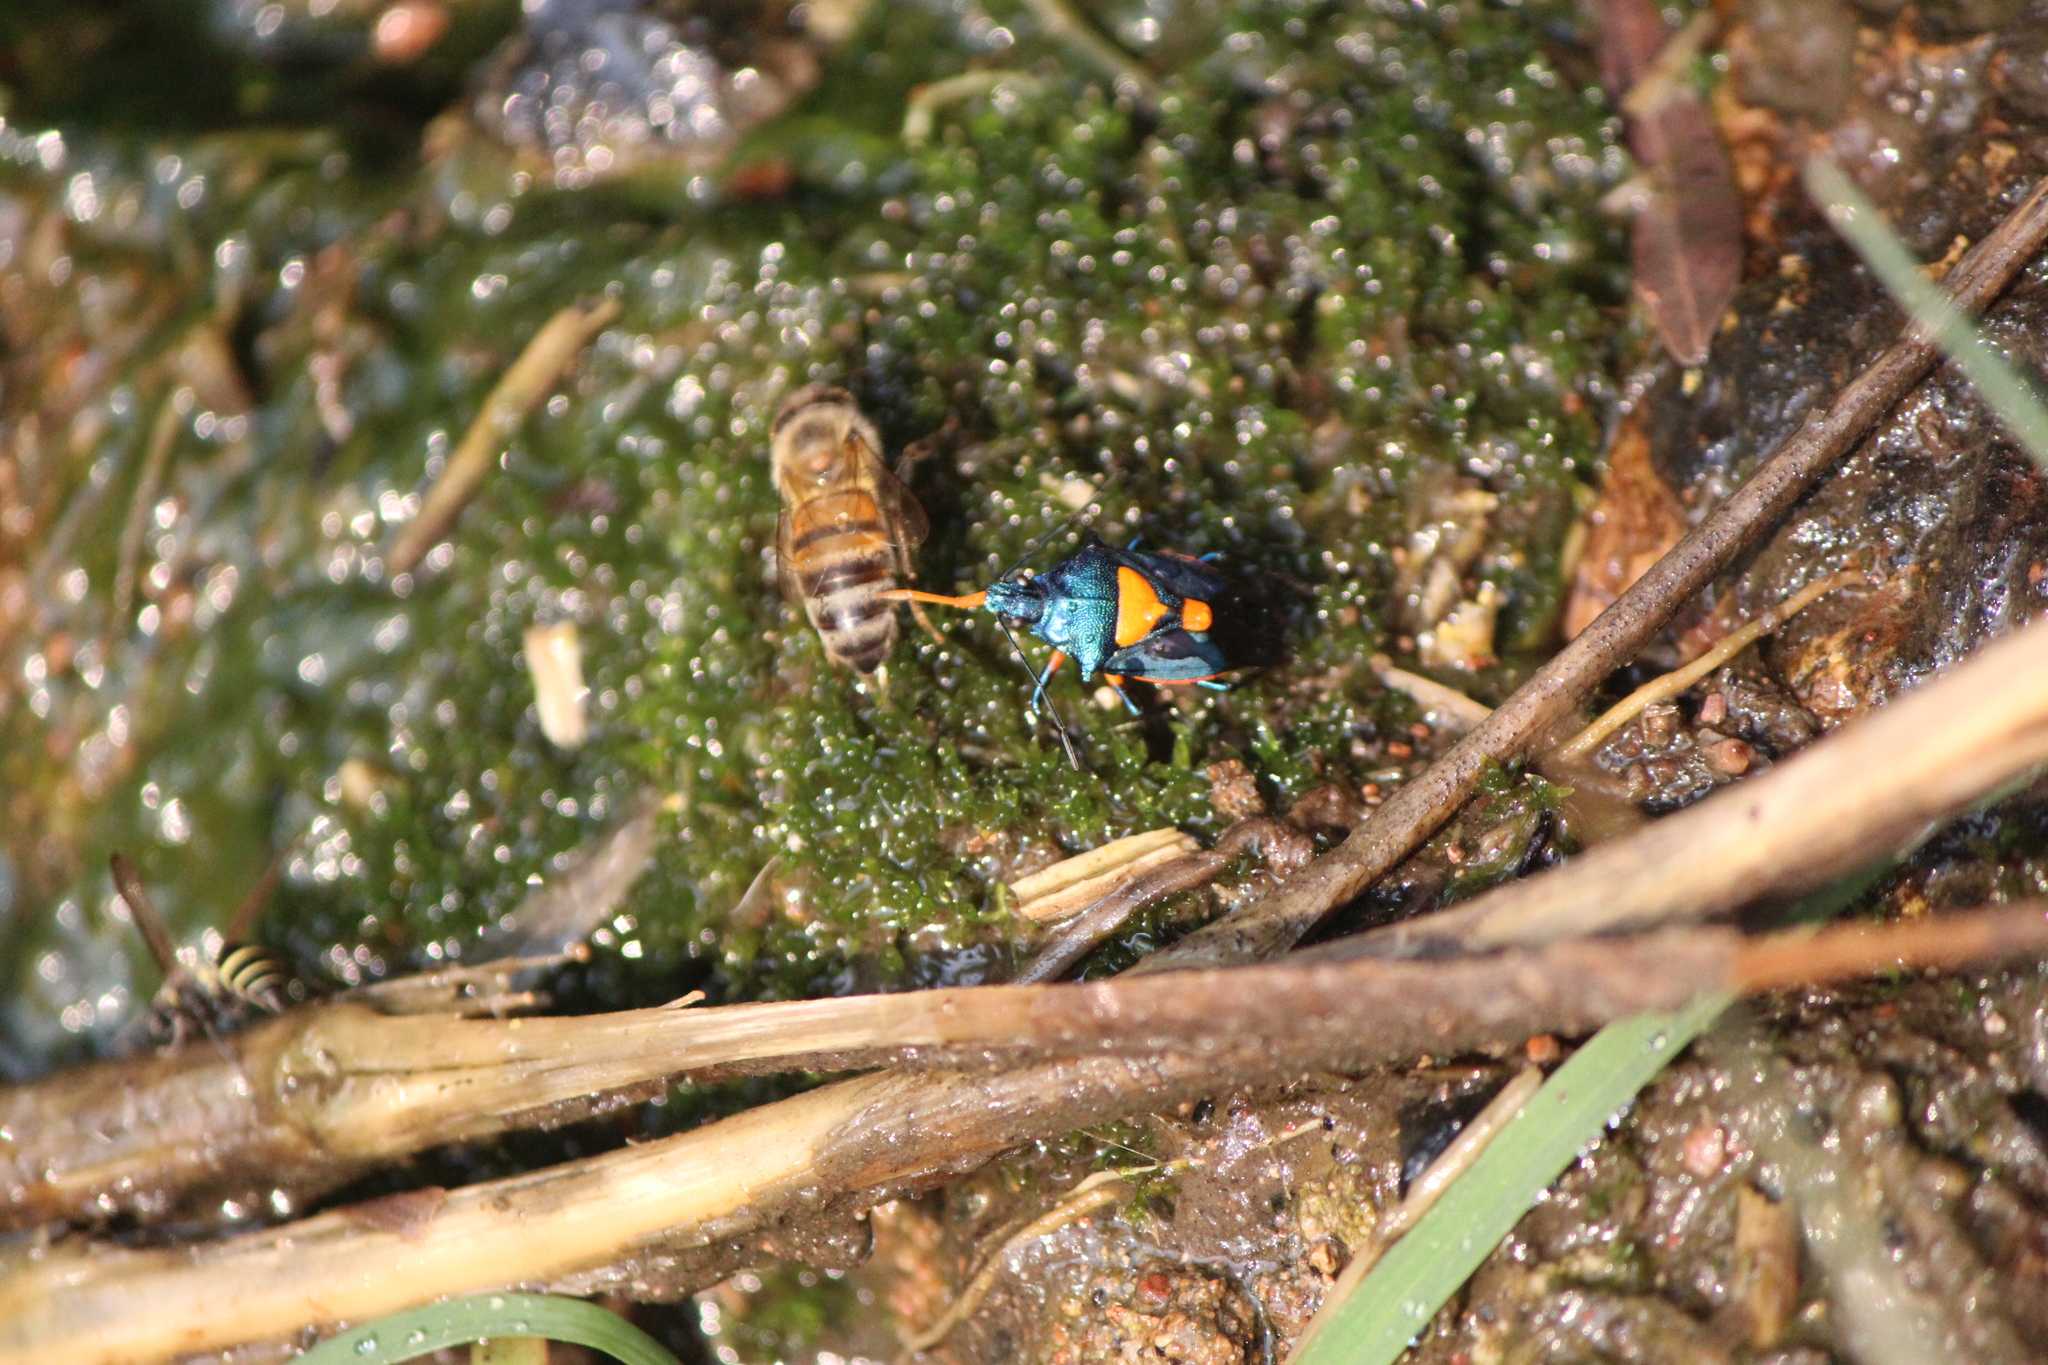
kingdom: Animalia
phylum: Arthropoda
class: Insecta
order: Hemiptera
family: Pentatomidae
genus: Euthyrhynchus
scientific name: Euthyrhynchus floridanus
